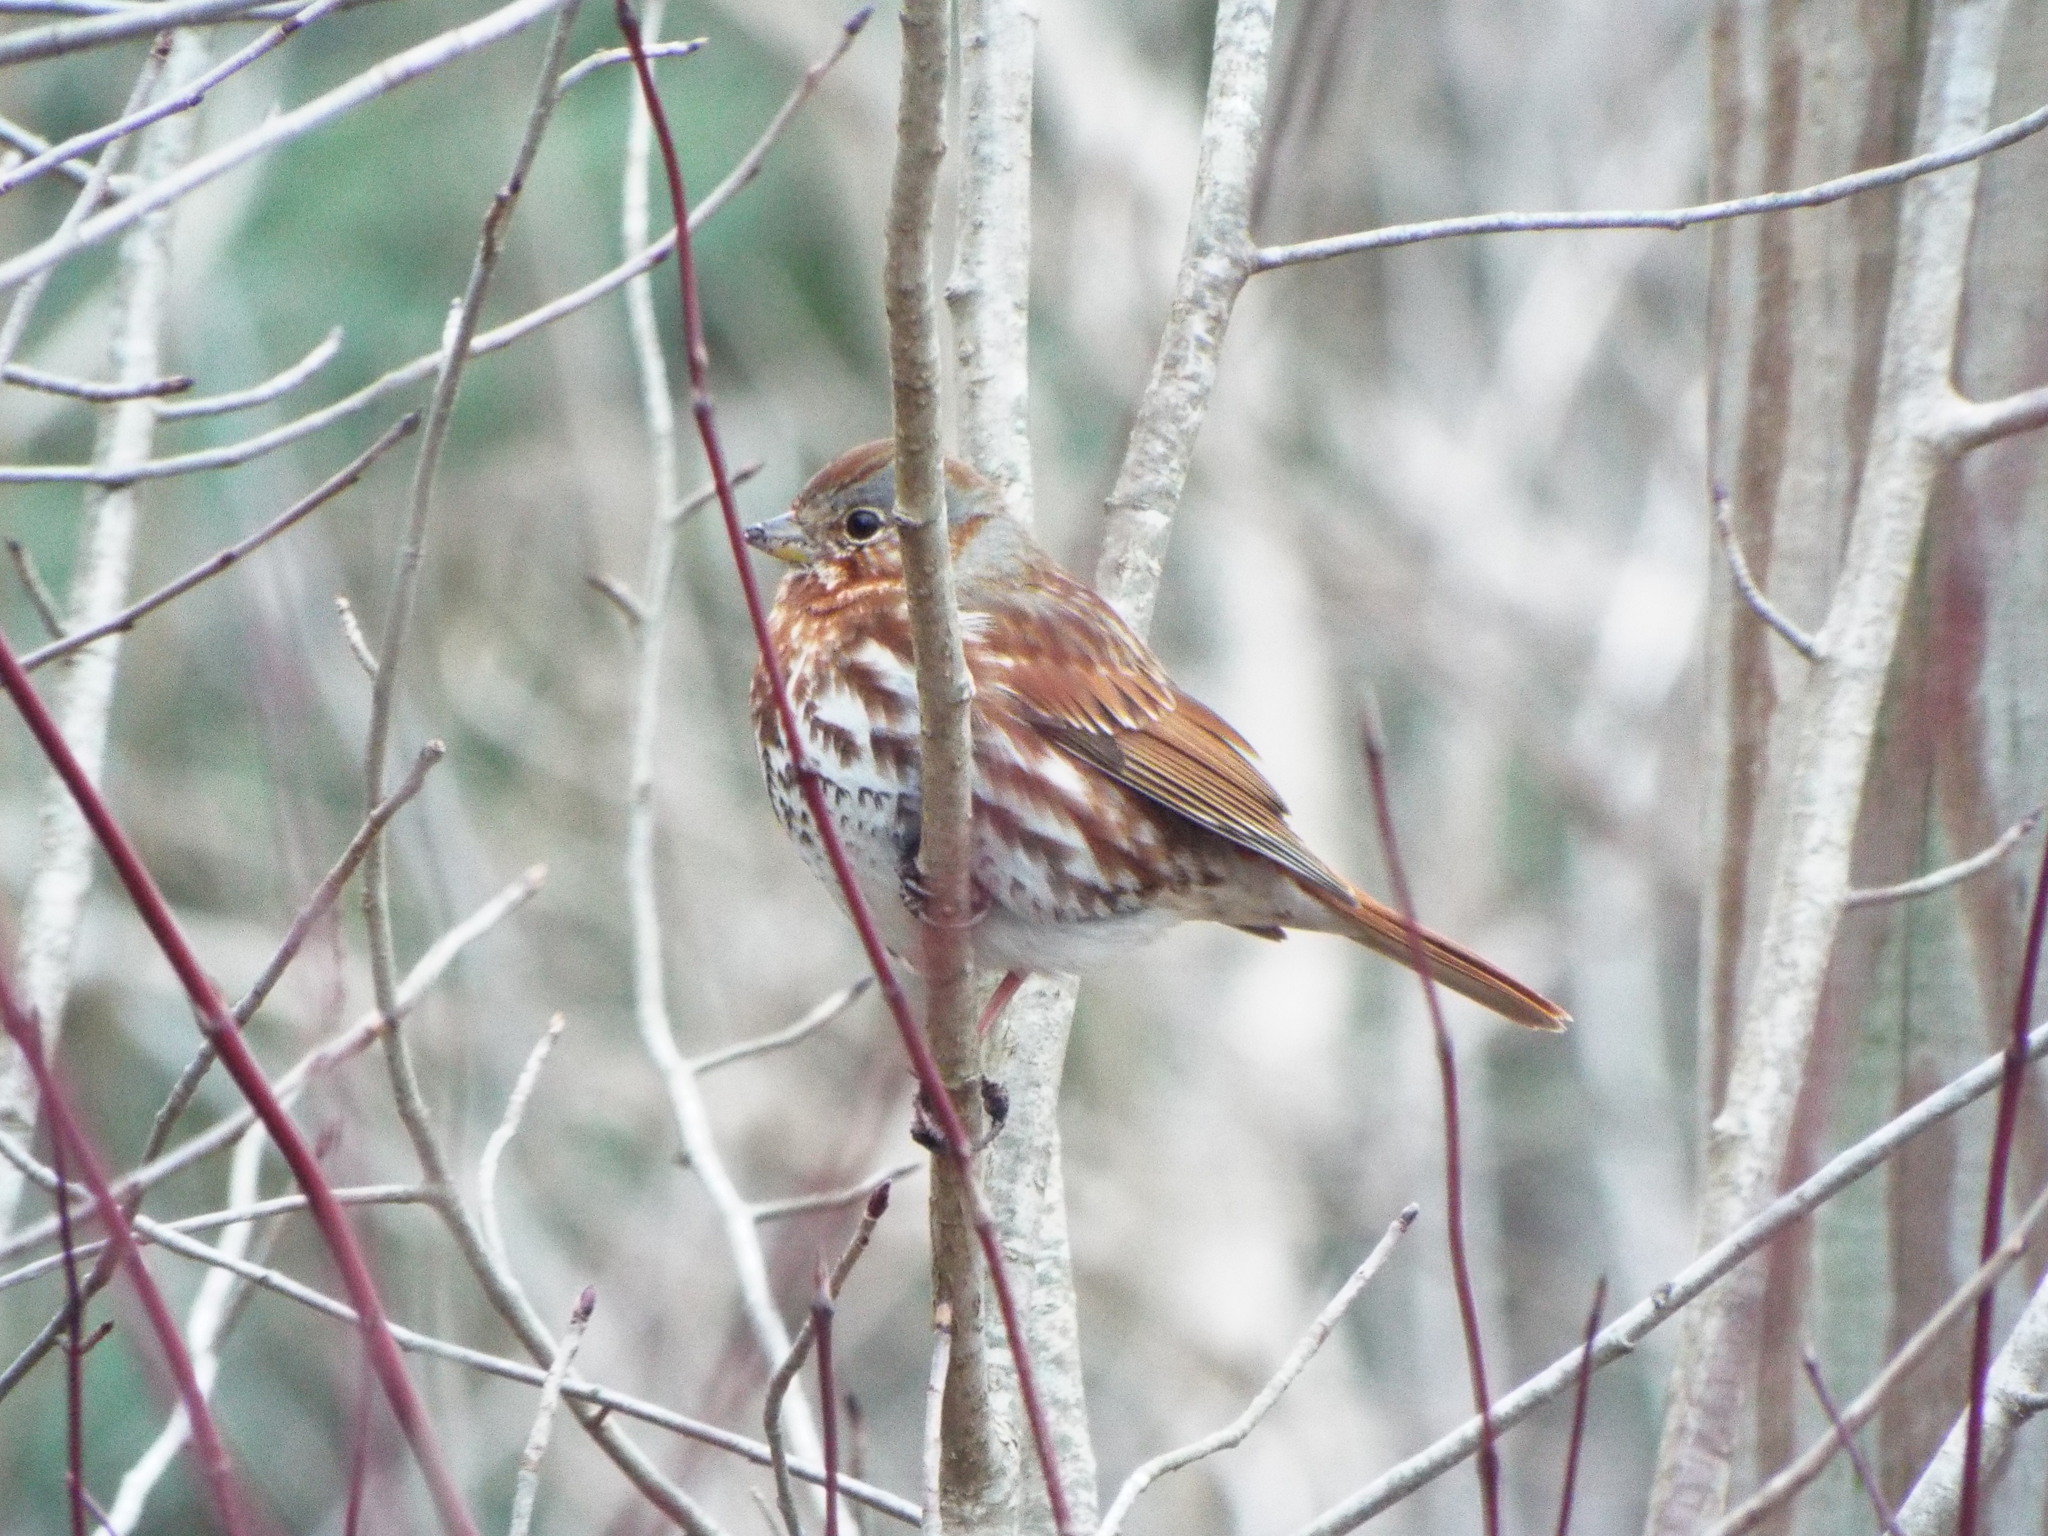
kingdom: Animalia
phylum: Chordata
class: Aves
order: Passeriformes
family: Passerellidae
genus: Passerella
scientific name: Passerella iliaca
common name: Fox sparrow
